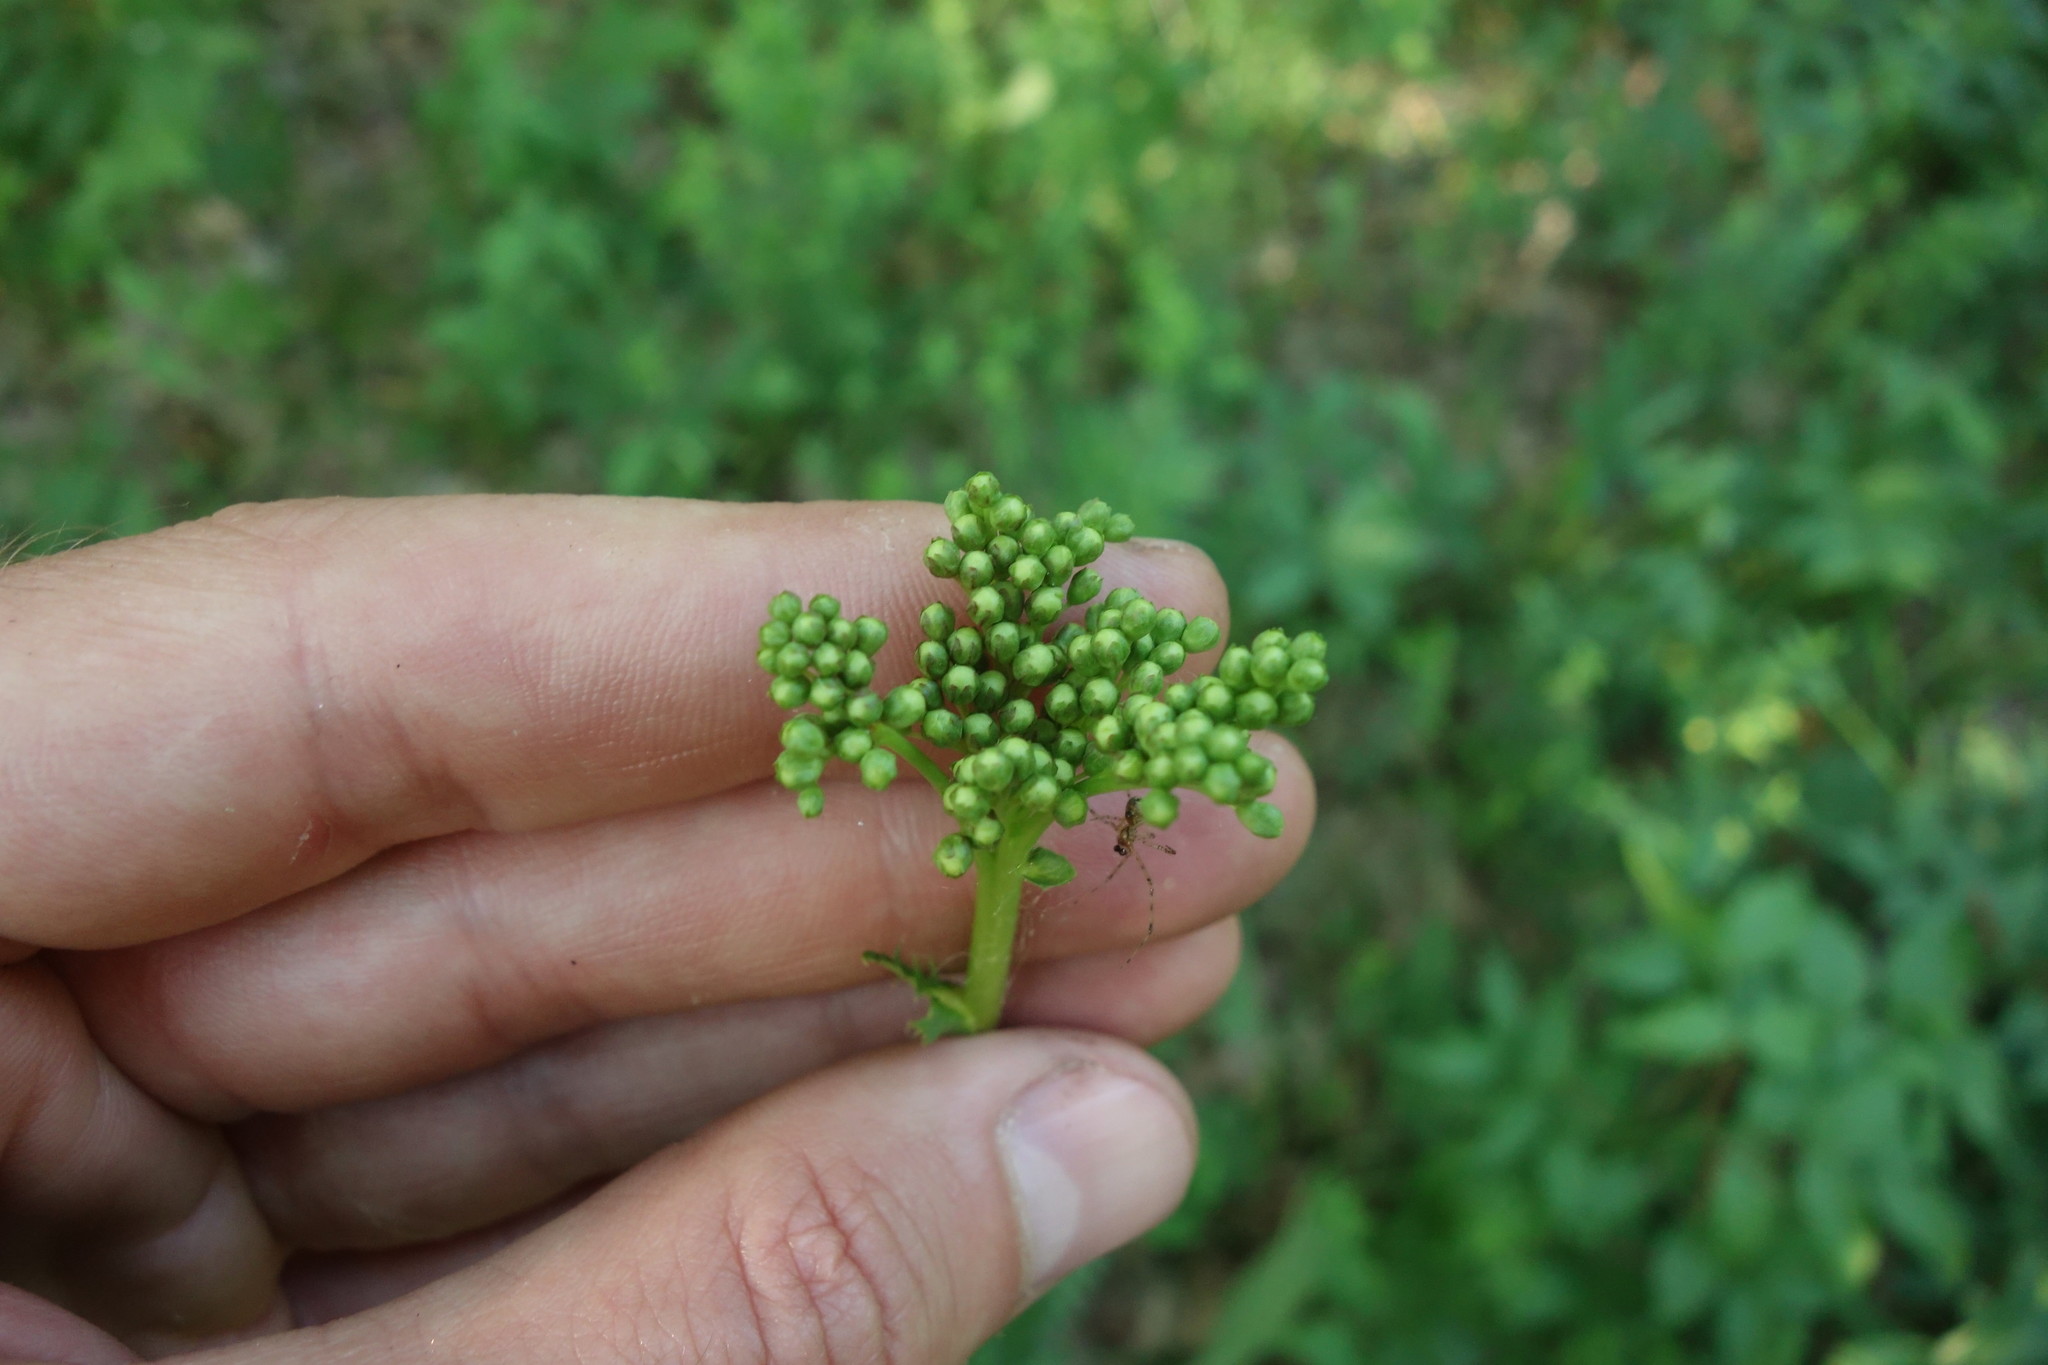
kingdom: Plantae
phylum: Tracheophyta
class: Magnoliopsida
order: Rosales
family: Rosaceae
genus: Filipendula
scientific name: Filipendula vulgaris
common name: Dropwort
